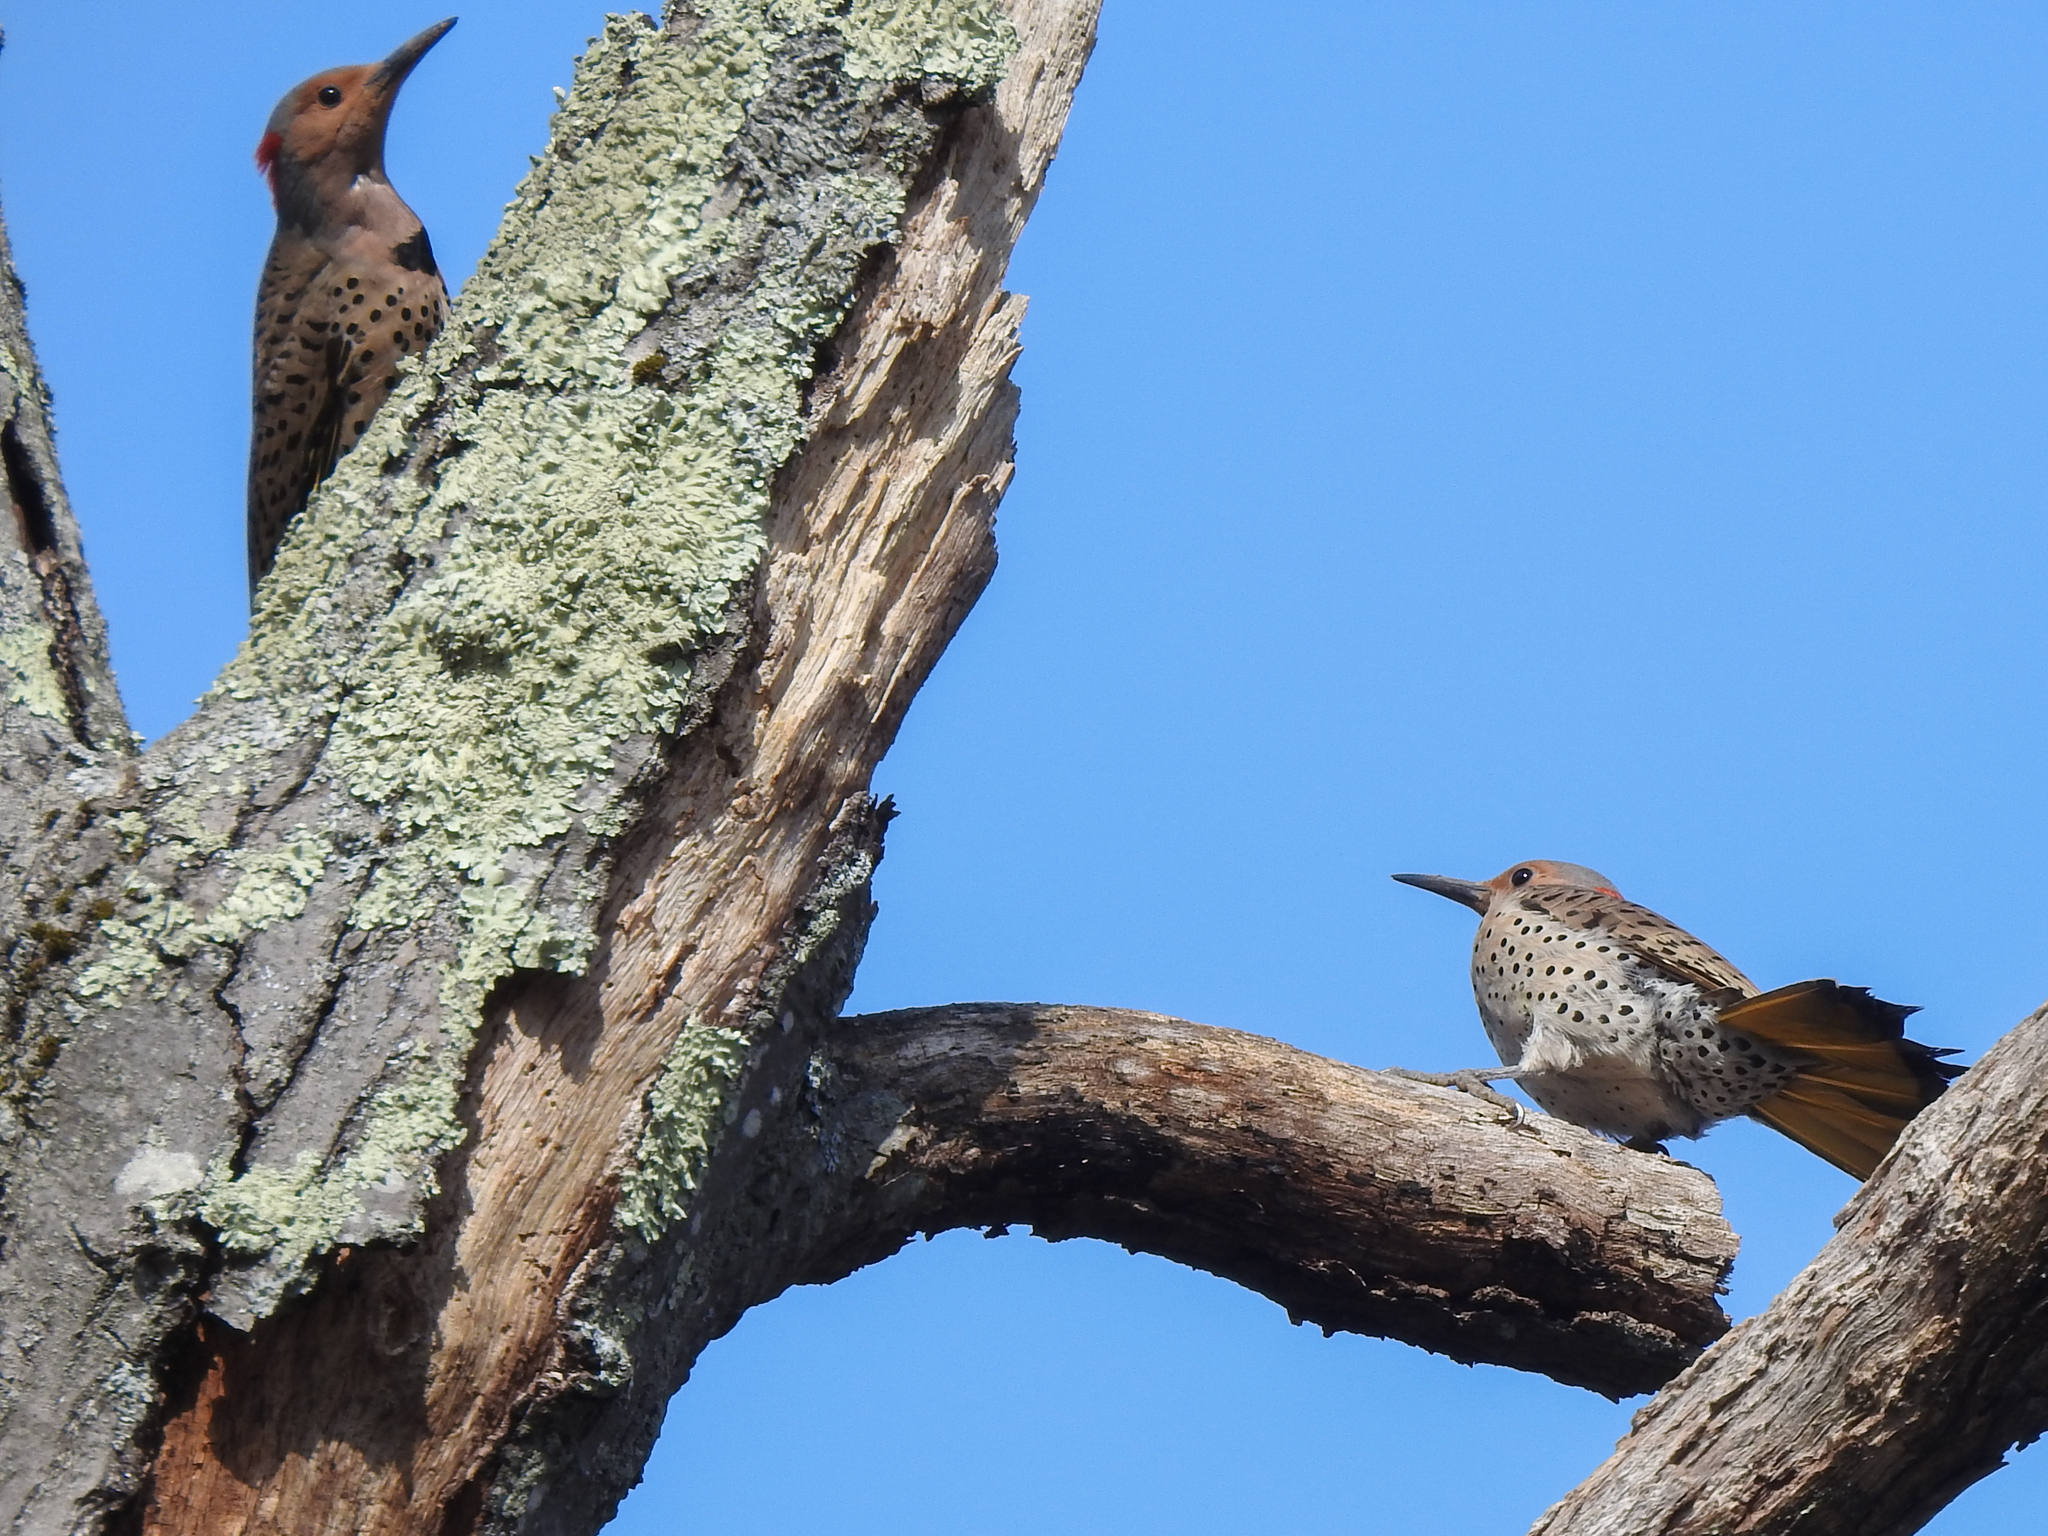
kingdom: Animalia
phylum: Chordata
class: Aves
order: Piciformes
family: Picidae
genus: Colaptes
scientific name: Colaptes auratus
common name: Northern flicker
